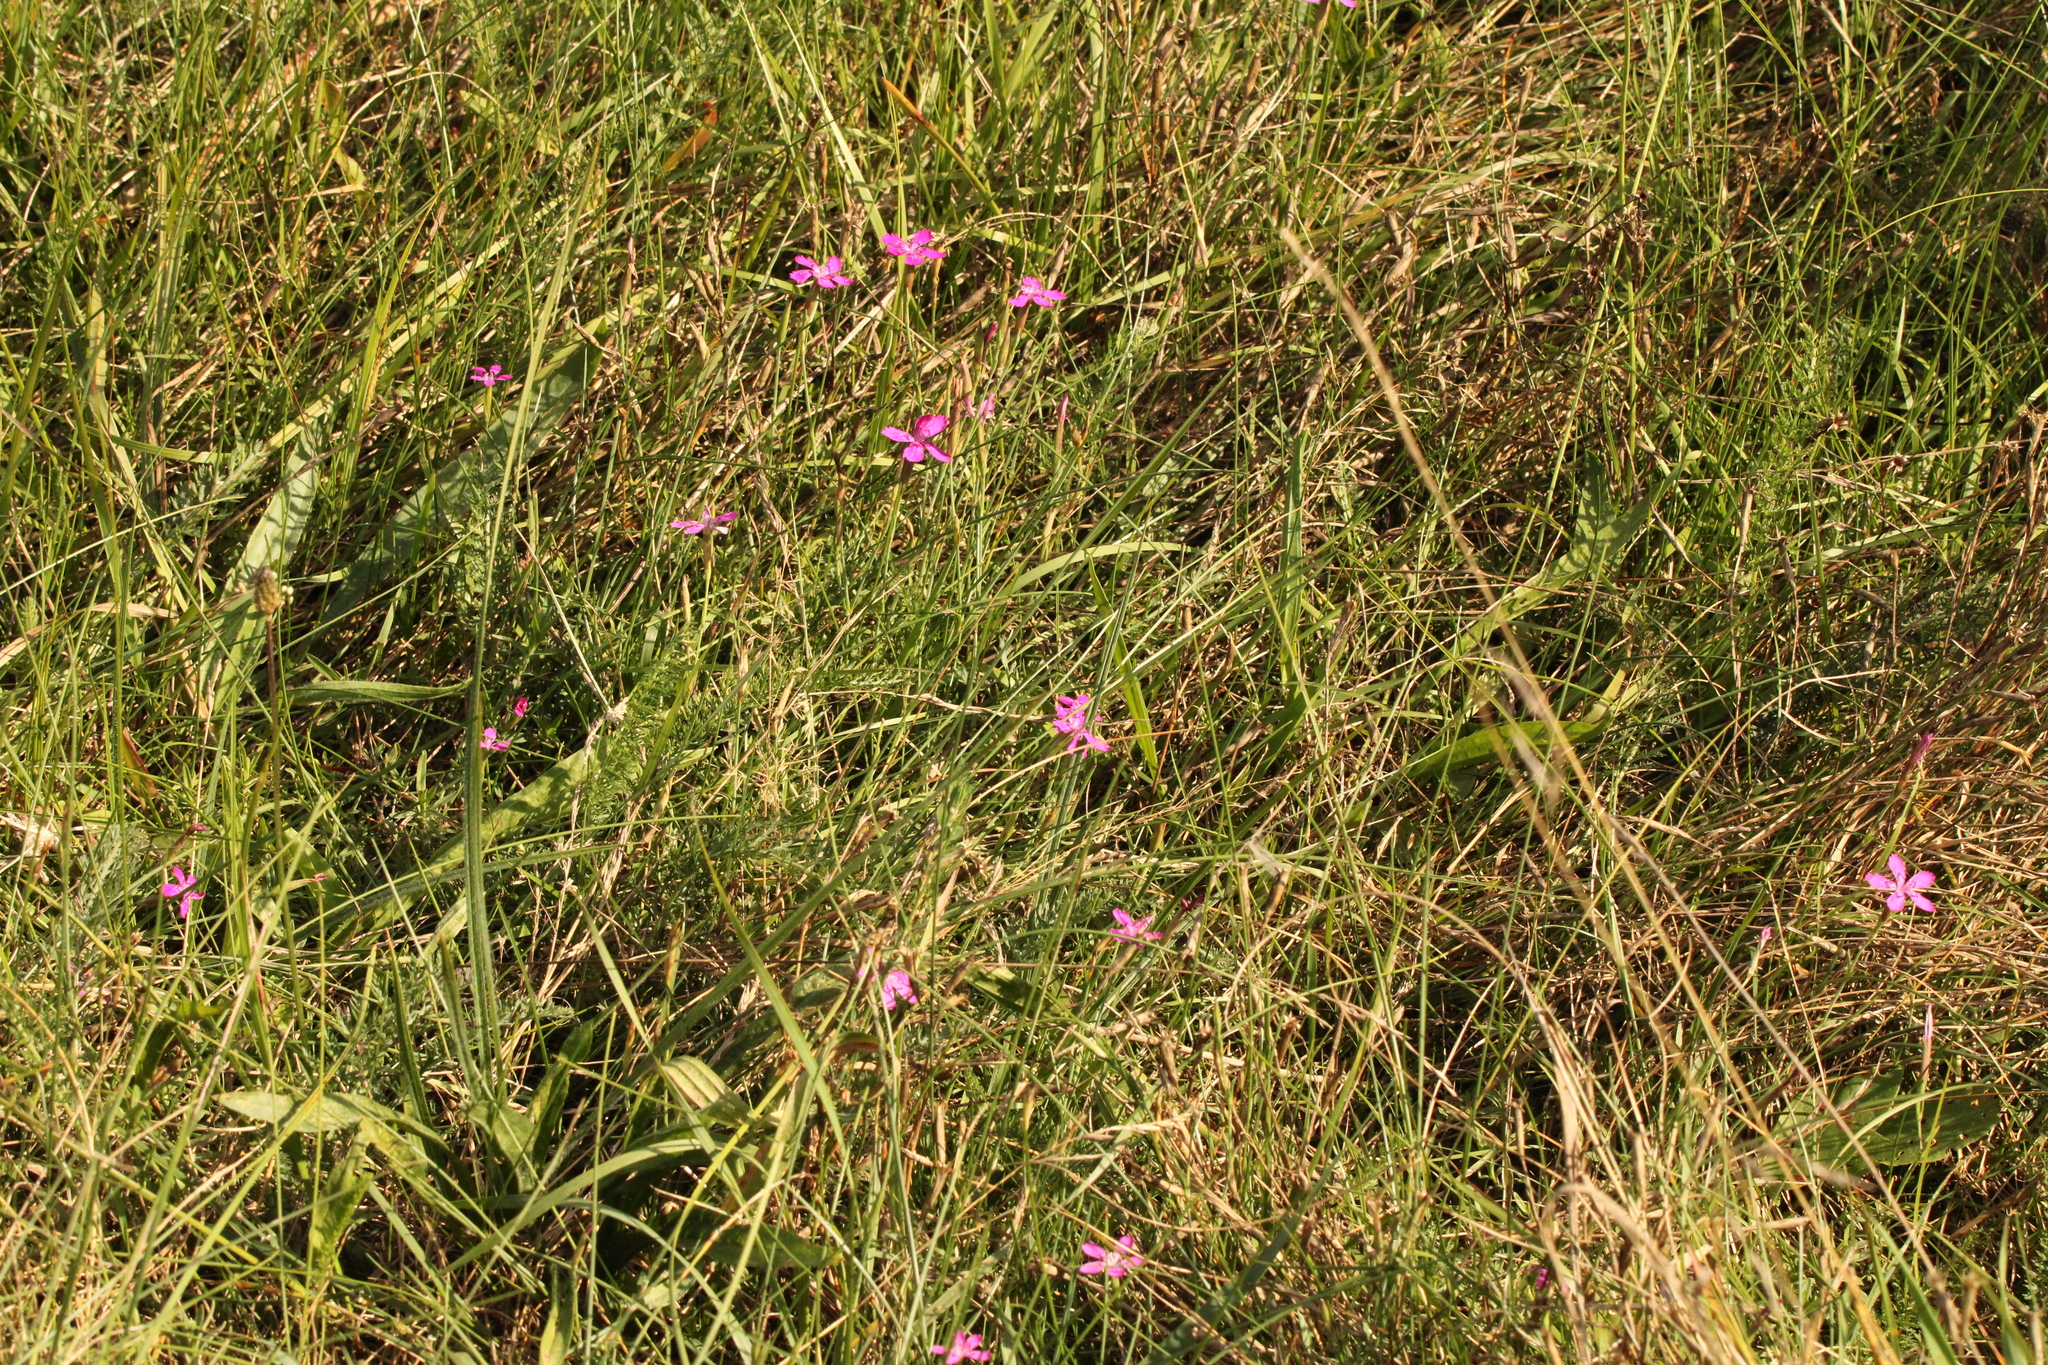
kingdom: Plantae
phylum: Tracheophyta
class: Magnoliopsida
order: Caryophyllales
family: Caryophyllaceae
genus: Dianthus
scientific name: Dianthus deltoides
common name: Maiden pink
